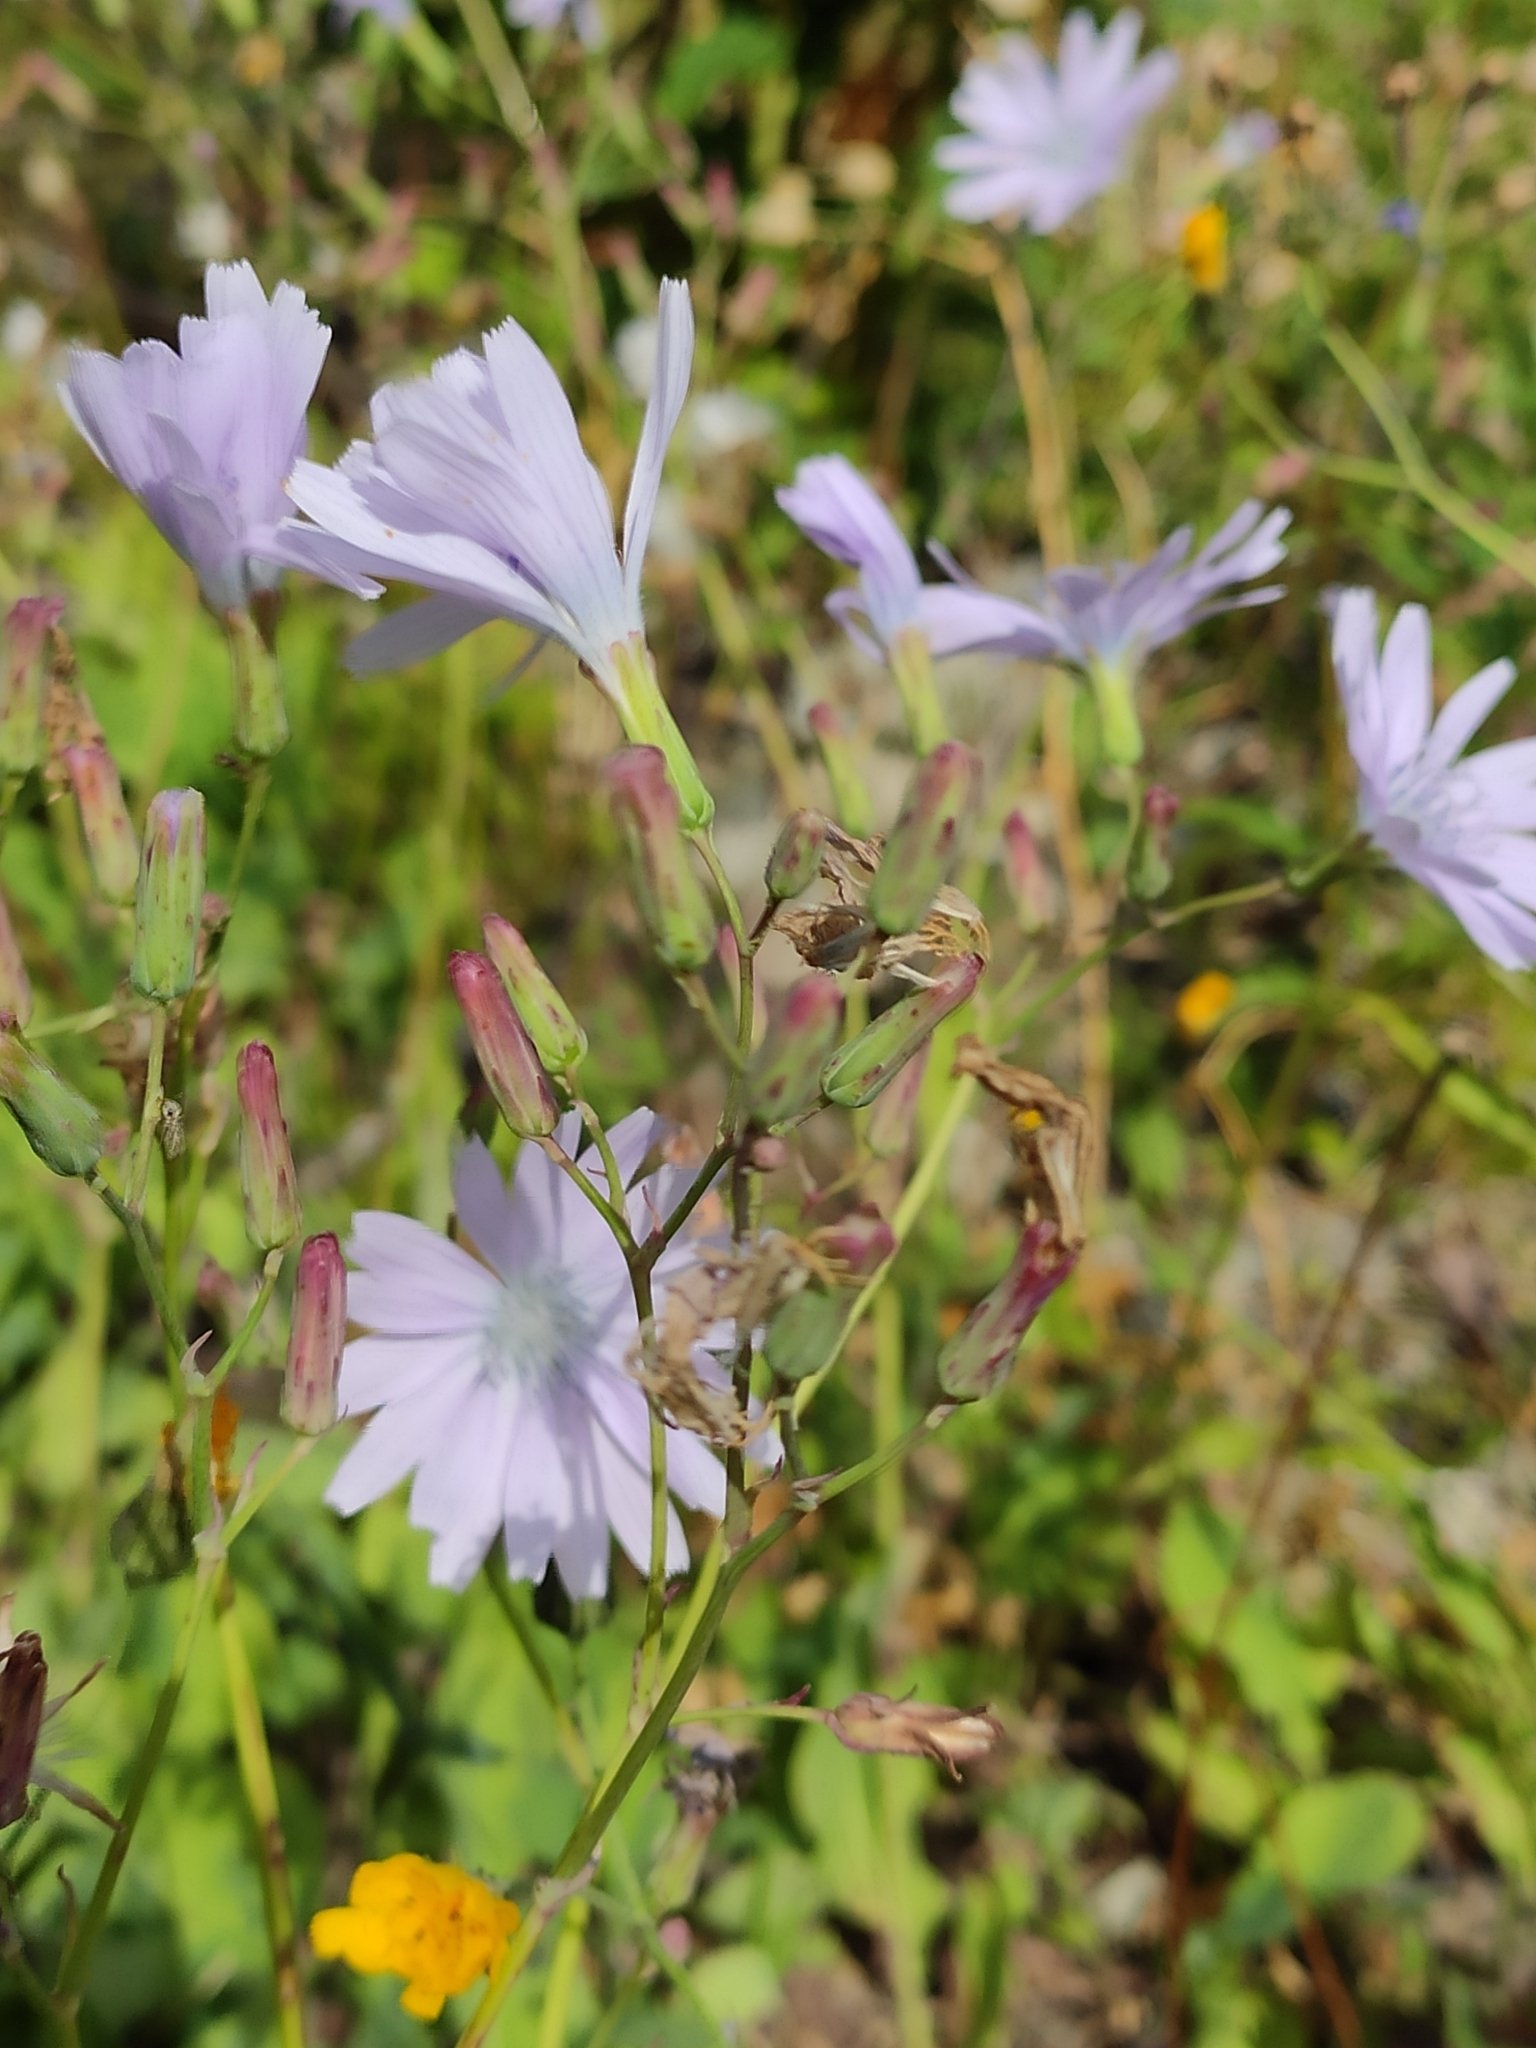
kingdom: Plantae
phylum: Tracheophyta
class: Magnoliopsida
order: Asterales
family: Asteraceae
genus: Lactuca
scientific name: Lactuca racemosa
